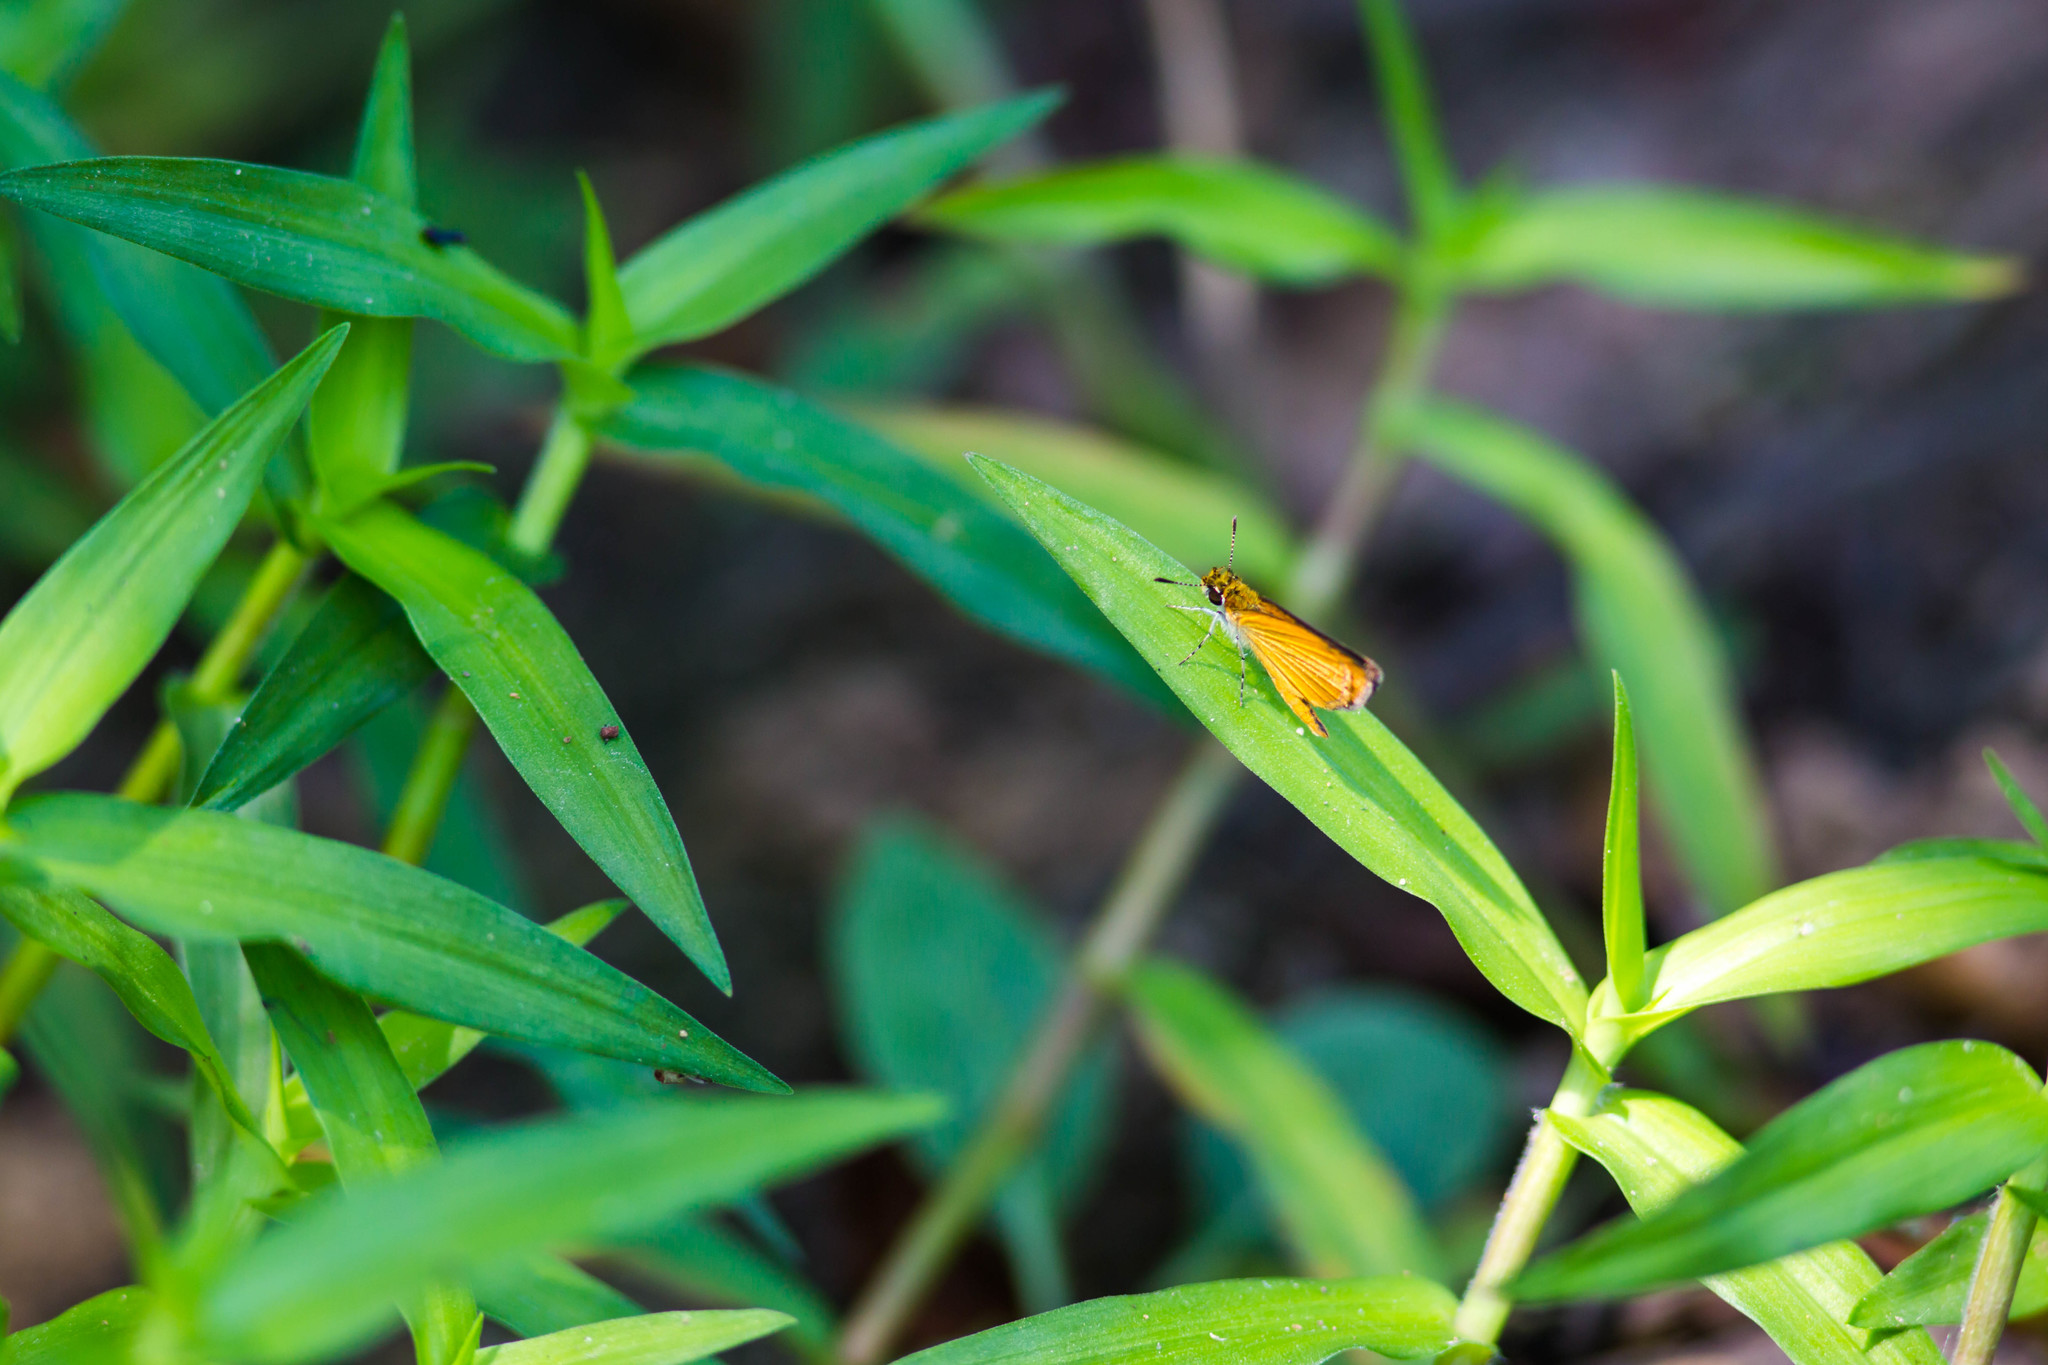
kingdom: Animalia
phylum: Arthropoda
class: Insecta
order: Lepidoptera
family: Hesperiidae
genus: Ancyloxypha
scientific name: Ancyloxypha numitor
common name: Least skipper
